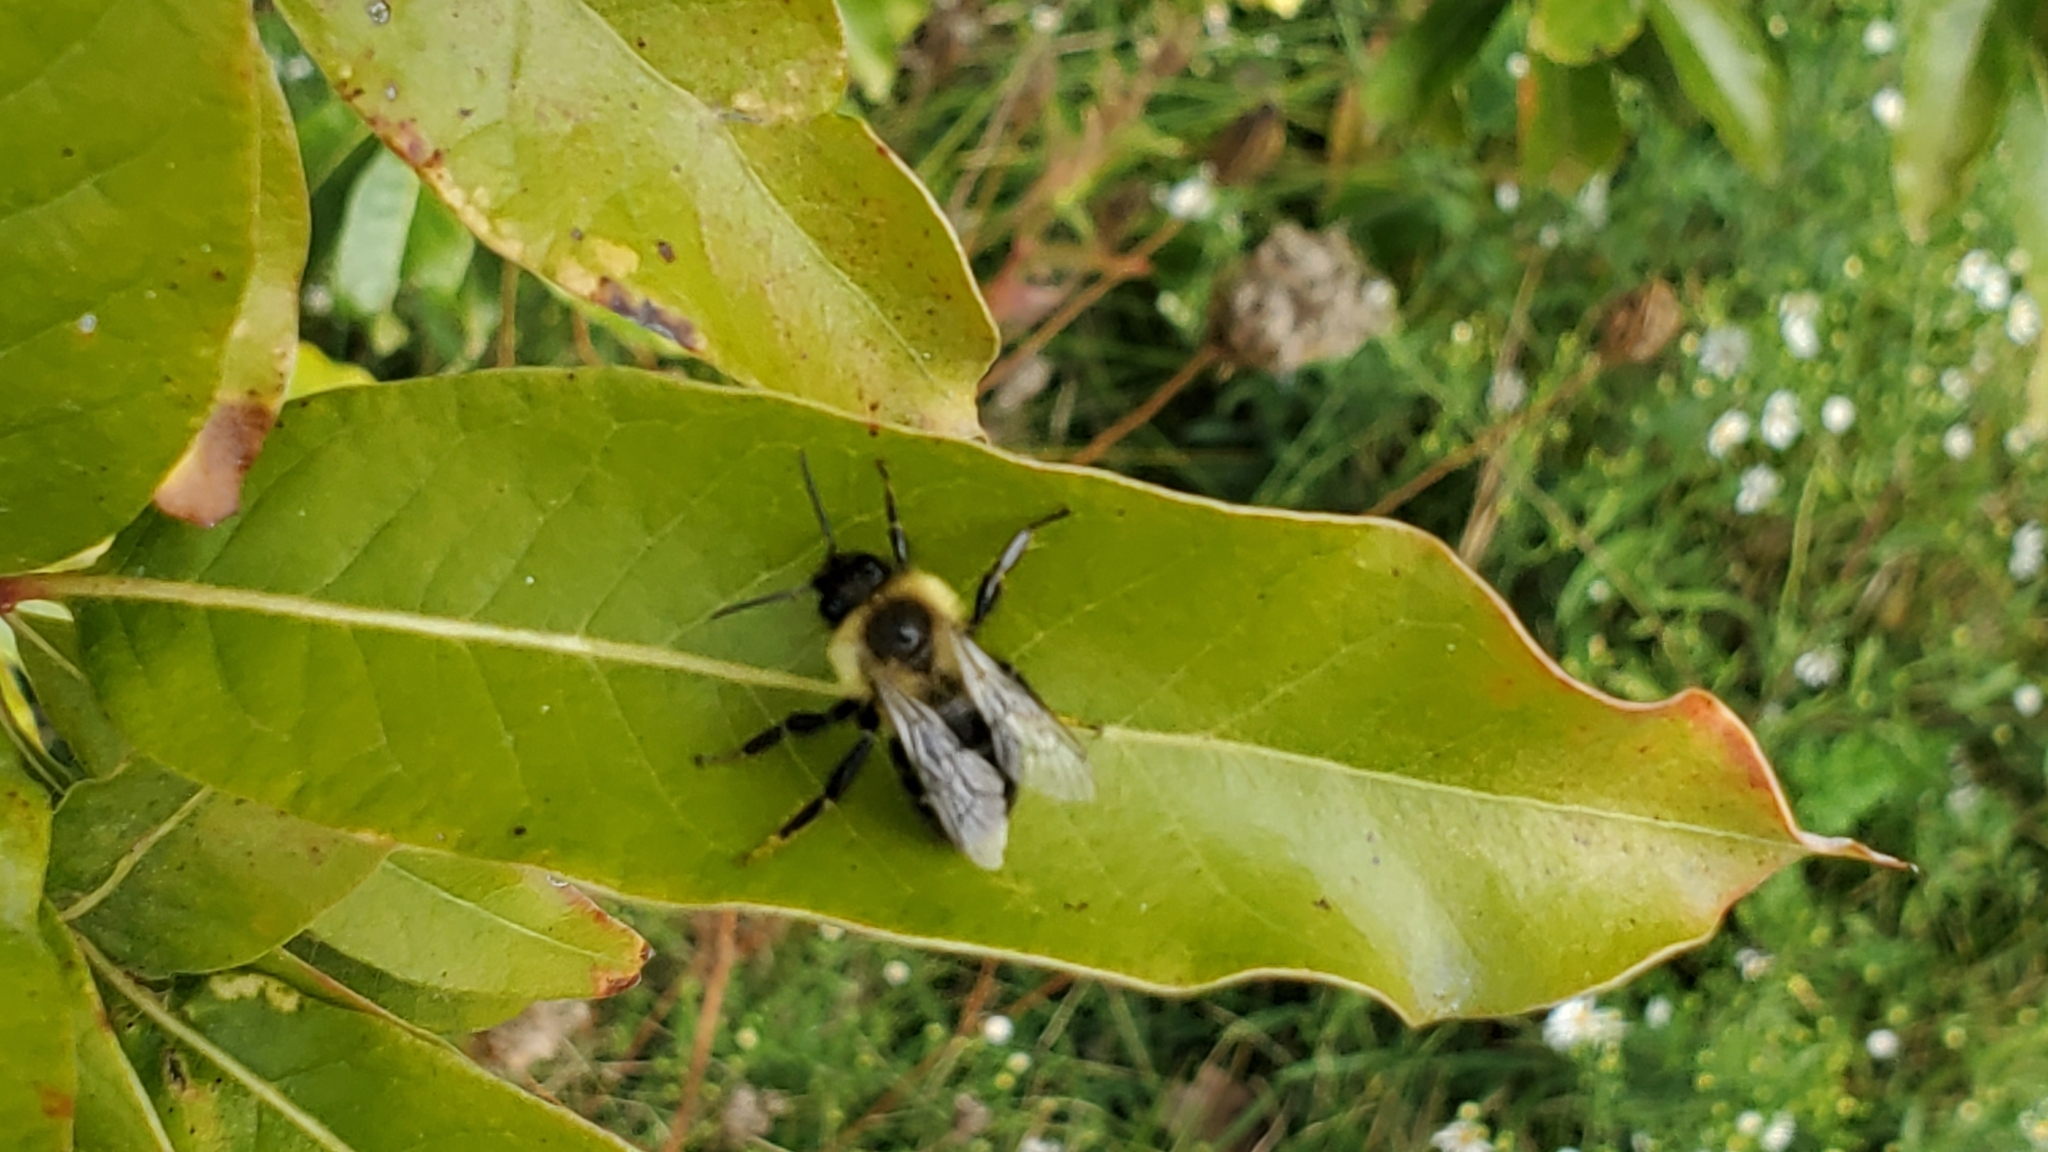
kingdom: Animalia
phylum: Arthropoda
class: Insecta
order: Hymenoptera
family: Apidae
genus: Bombus
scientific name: Bombus impatiens
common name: Common eastern bumble bee
